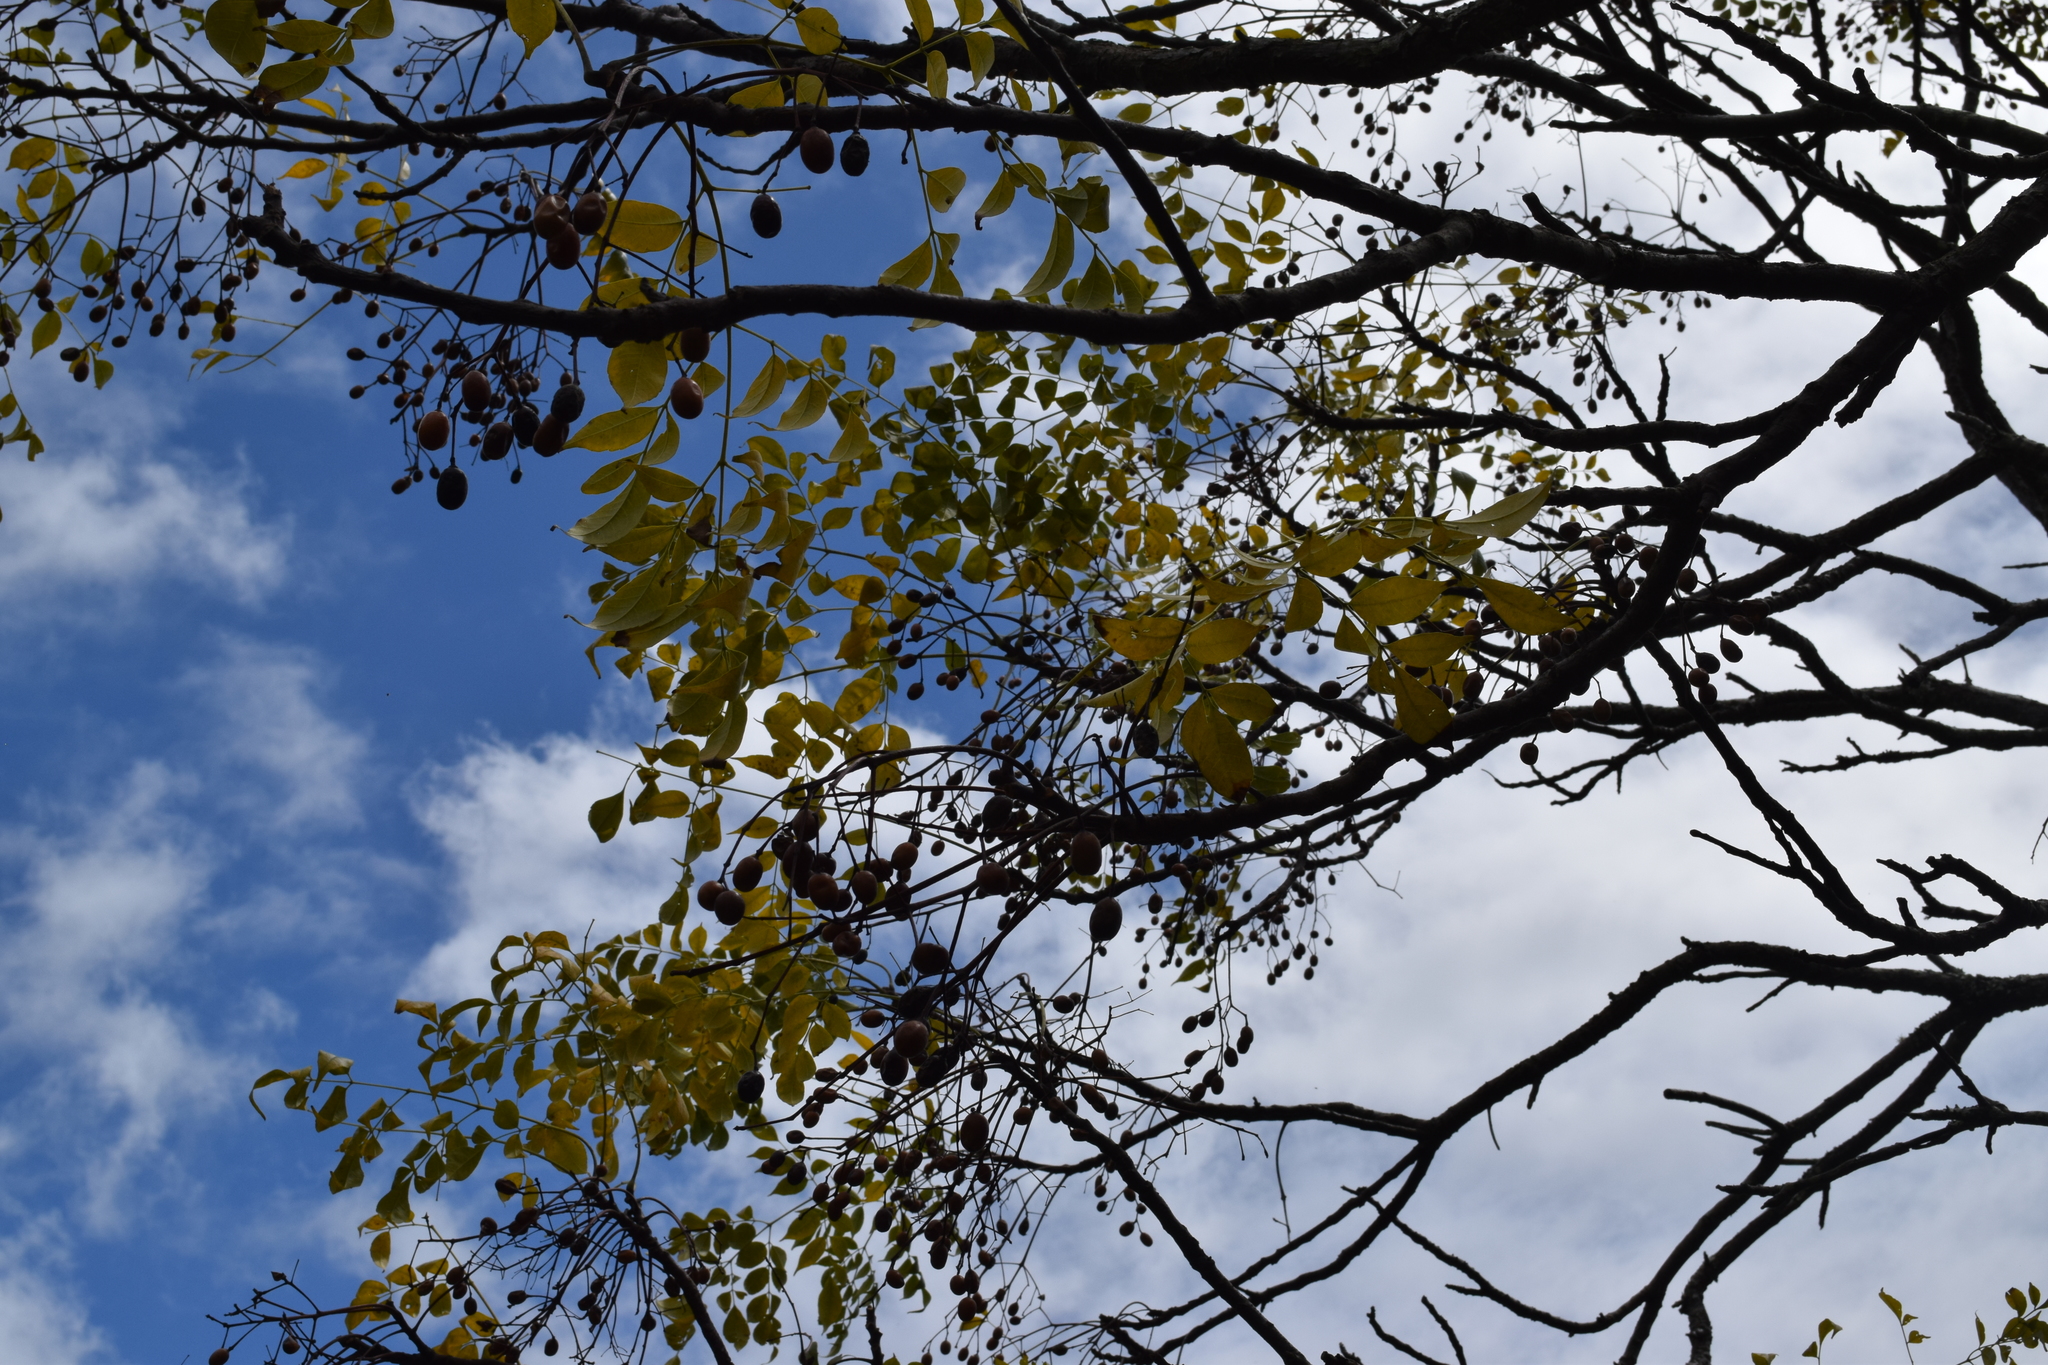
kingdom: Plantae
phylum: Tracheophyta
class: Magnoliopsida
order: Sapindales
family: Meliaceae
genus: Melia
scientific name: Melia azedarach
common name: Chinaberrytree
